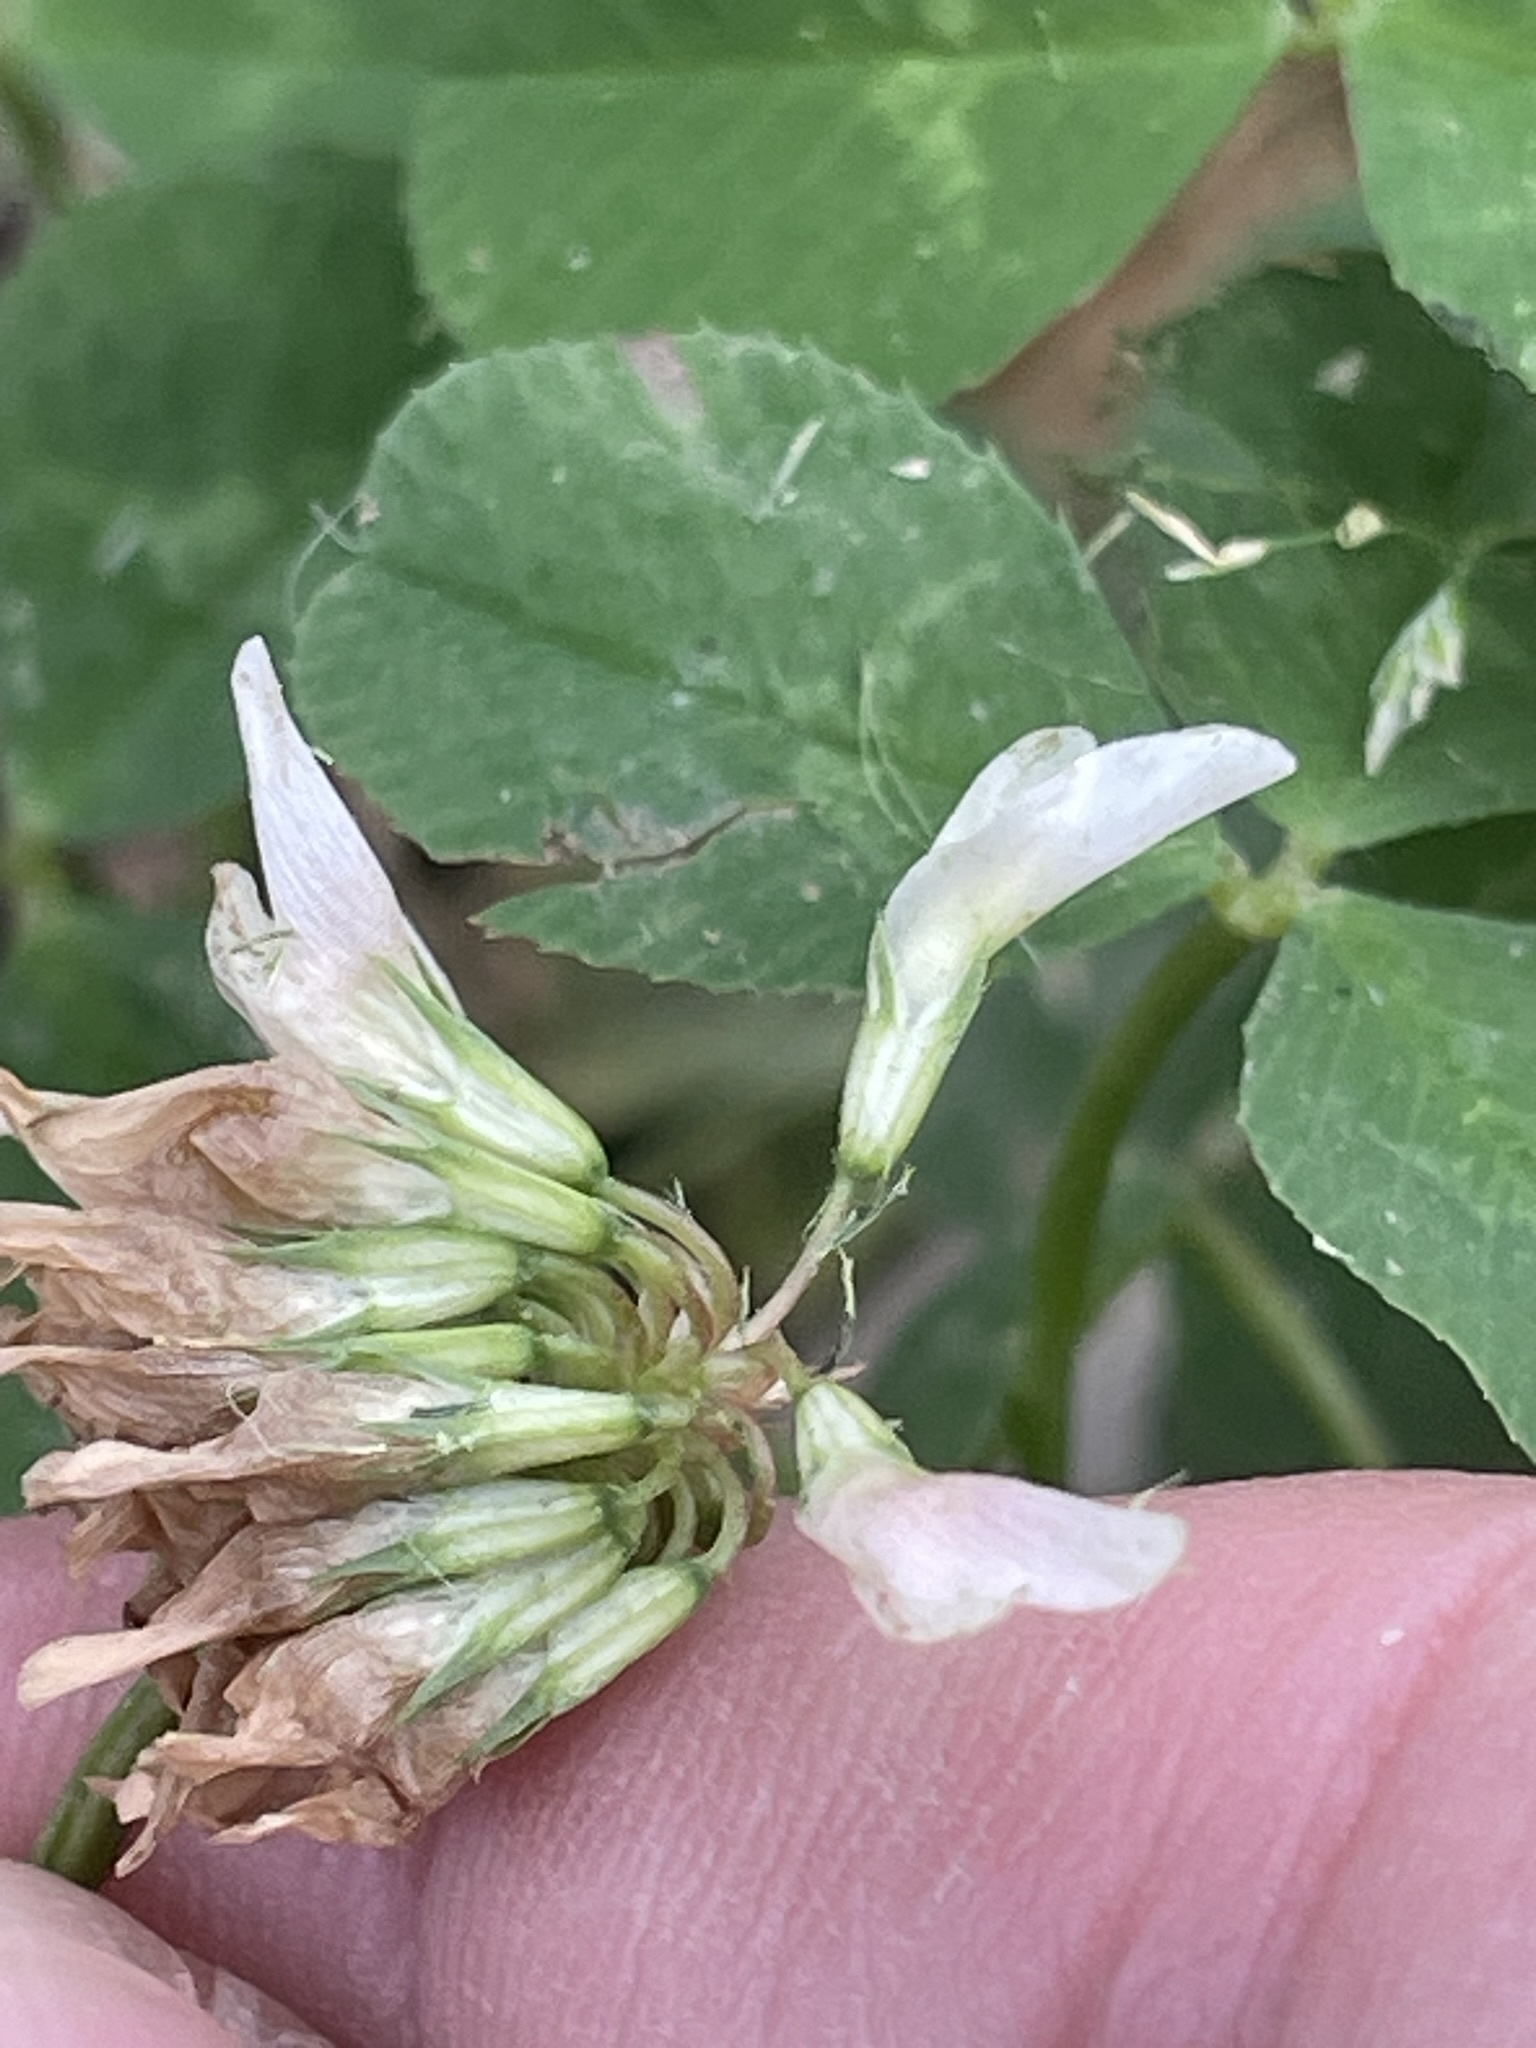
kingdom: Plantae
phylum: Tracheophyta
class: Magnoliopsida
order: Fabales
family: Fabaceae
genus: Trifolium
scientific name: Trifolium repens
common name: White clover
